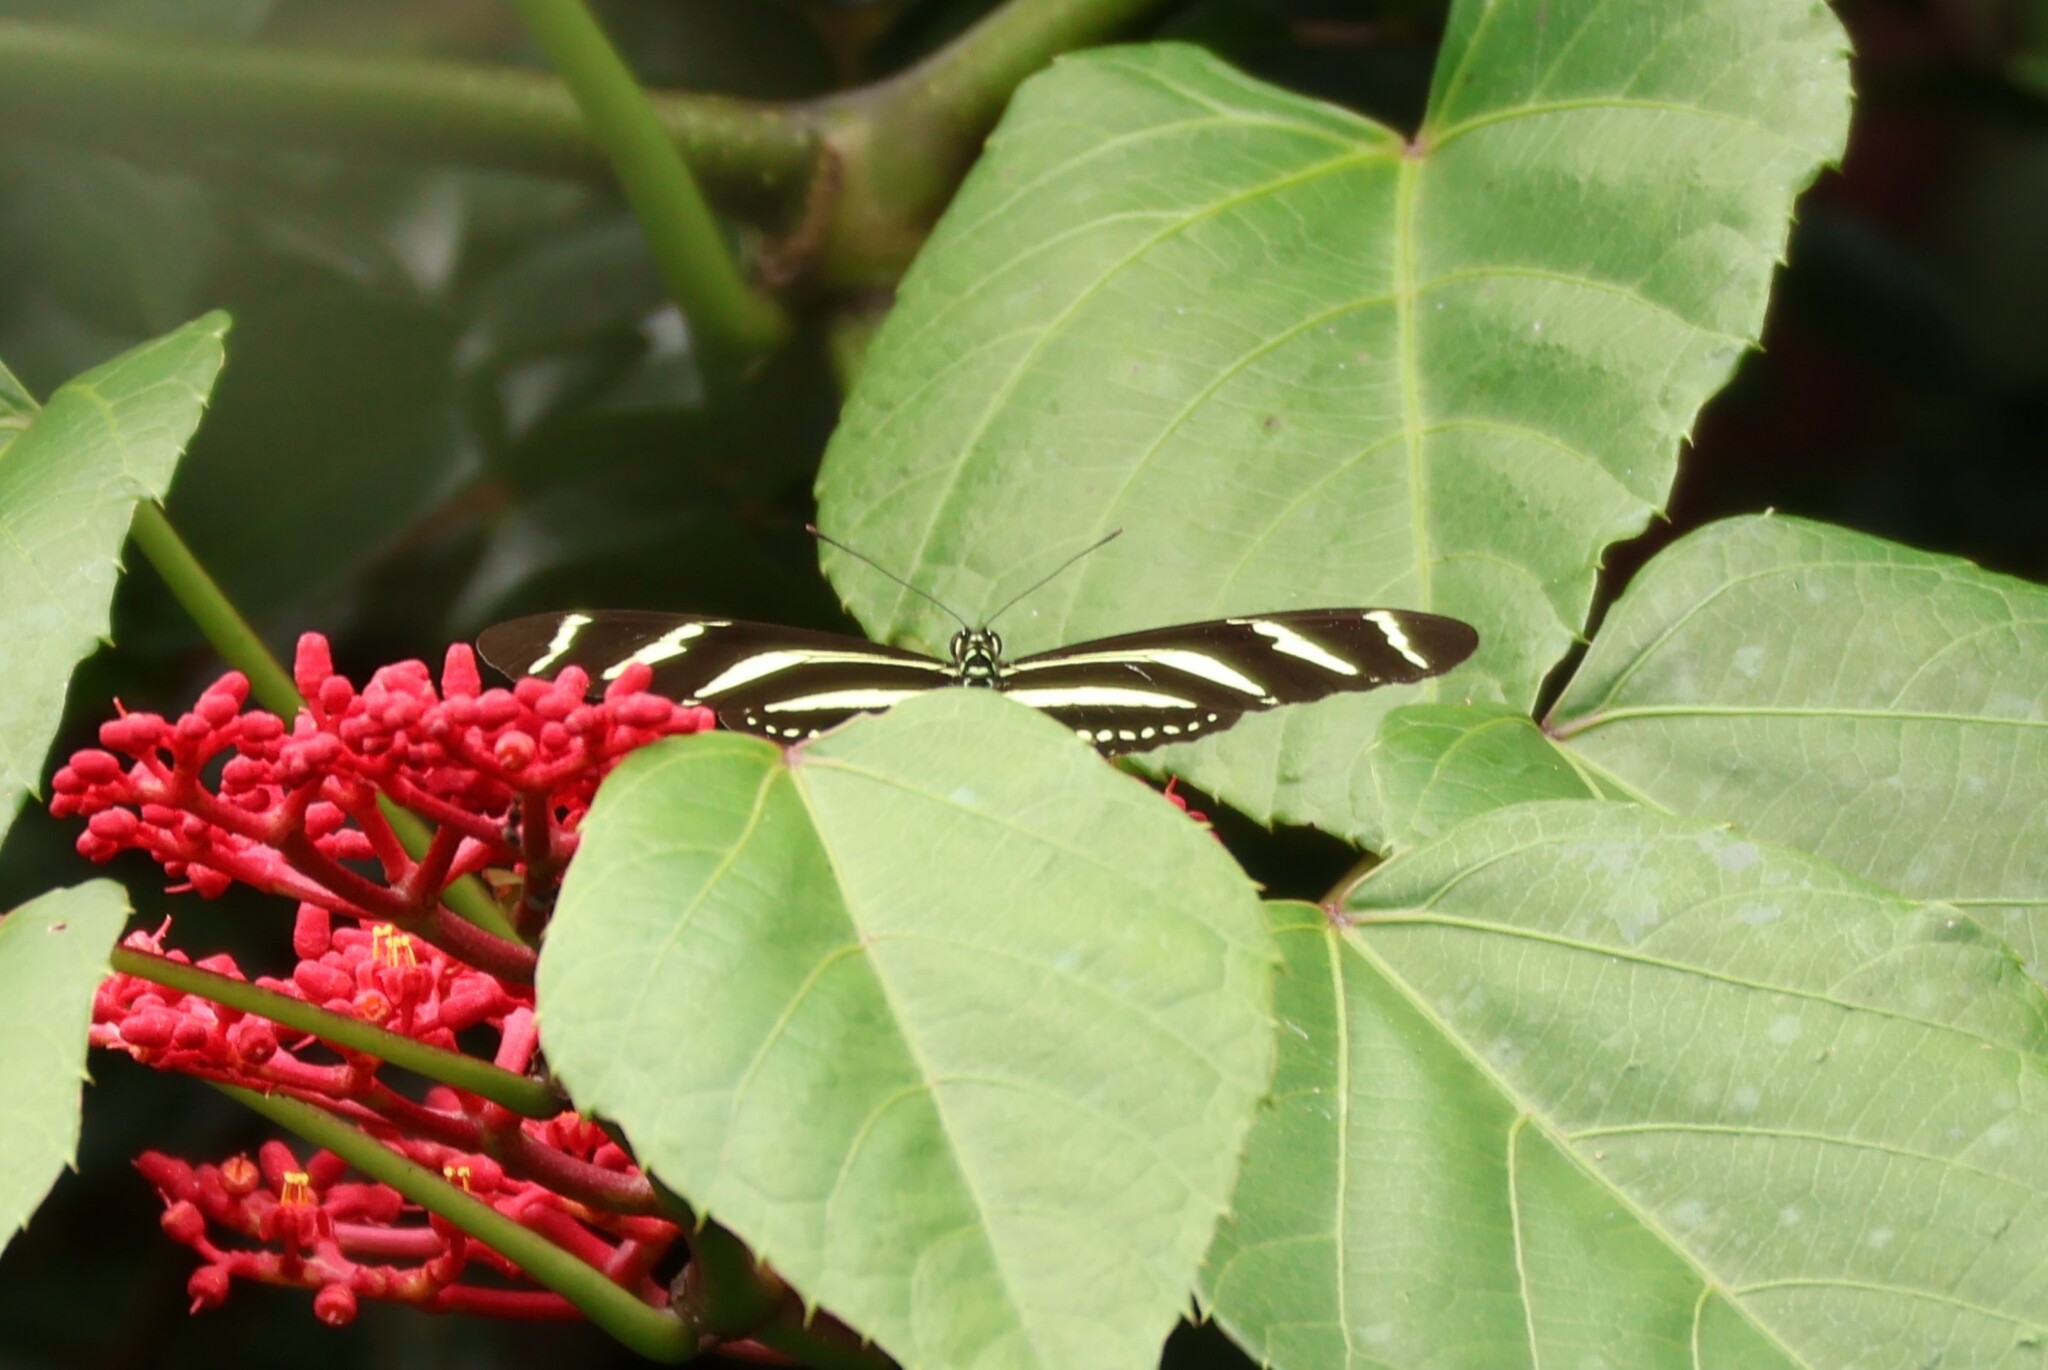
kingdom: Animalia
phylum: Arthropoda
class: Insecta
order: Lepidoptera
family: Nymphalidae
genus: Heliconius
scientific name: Heliconius charithonia
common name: Zebra long wing
